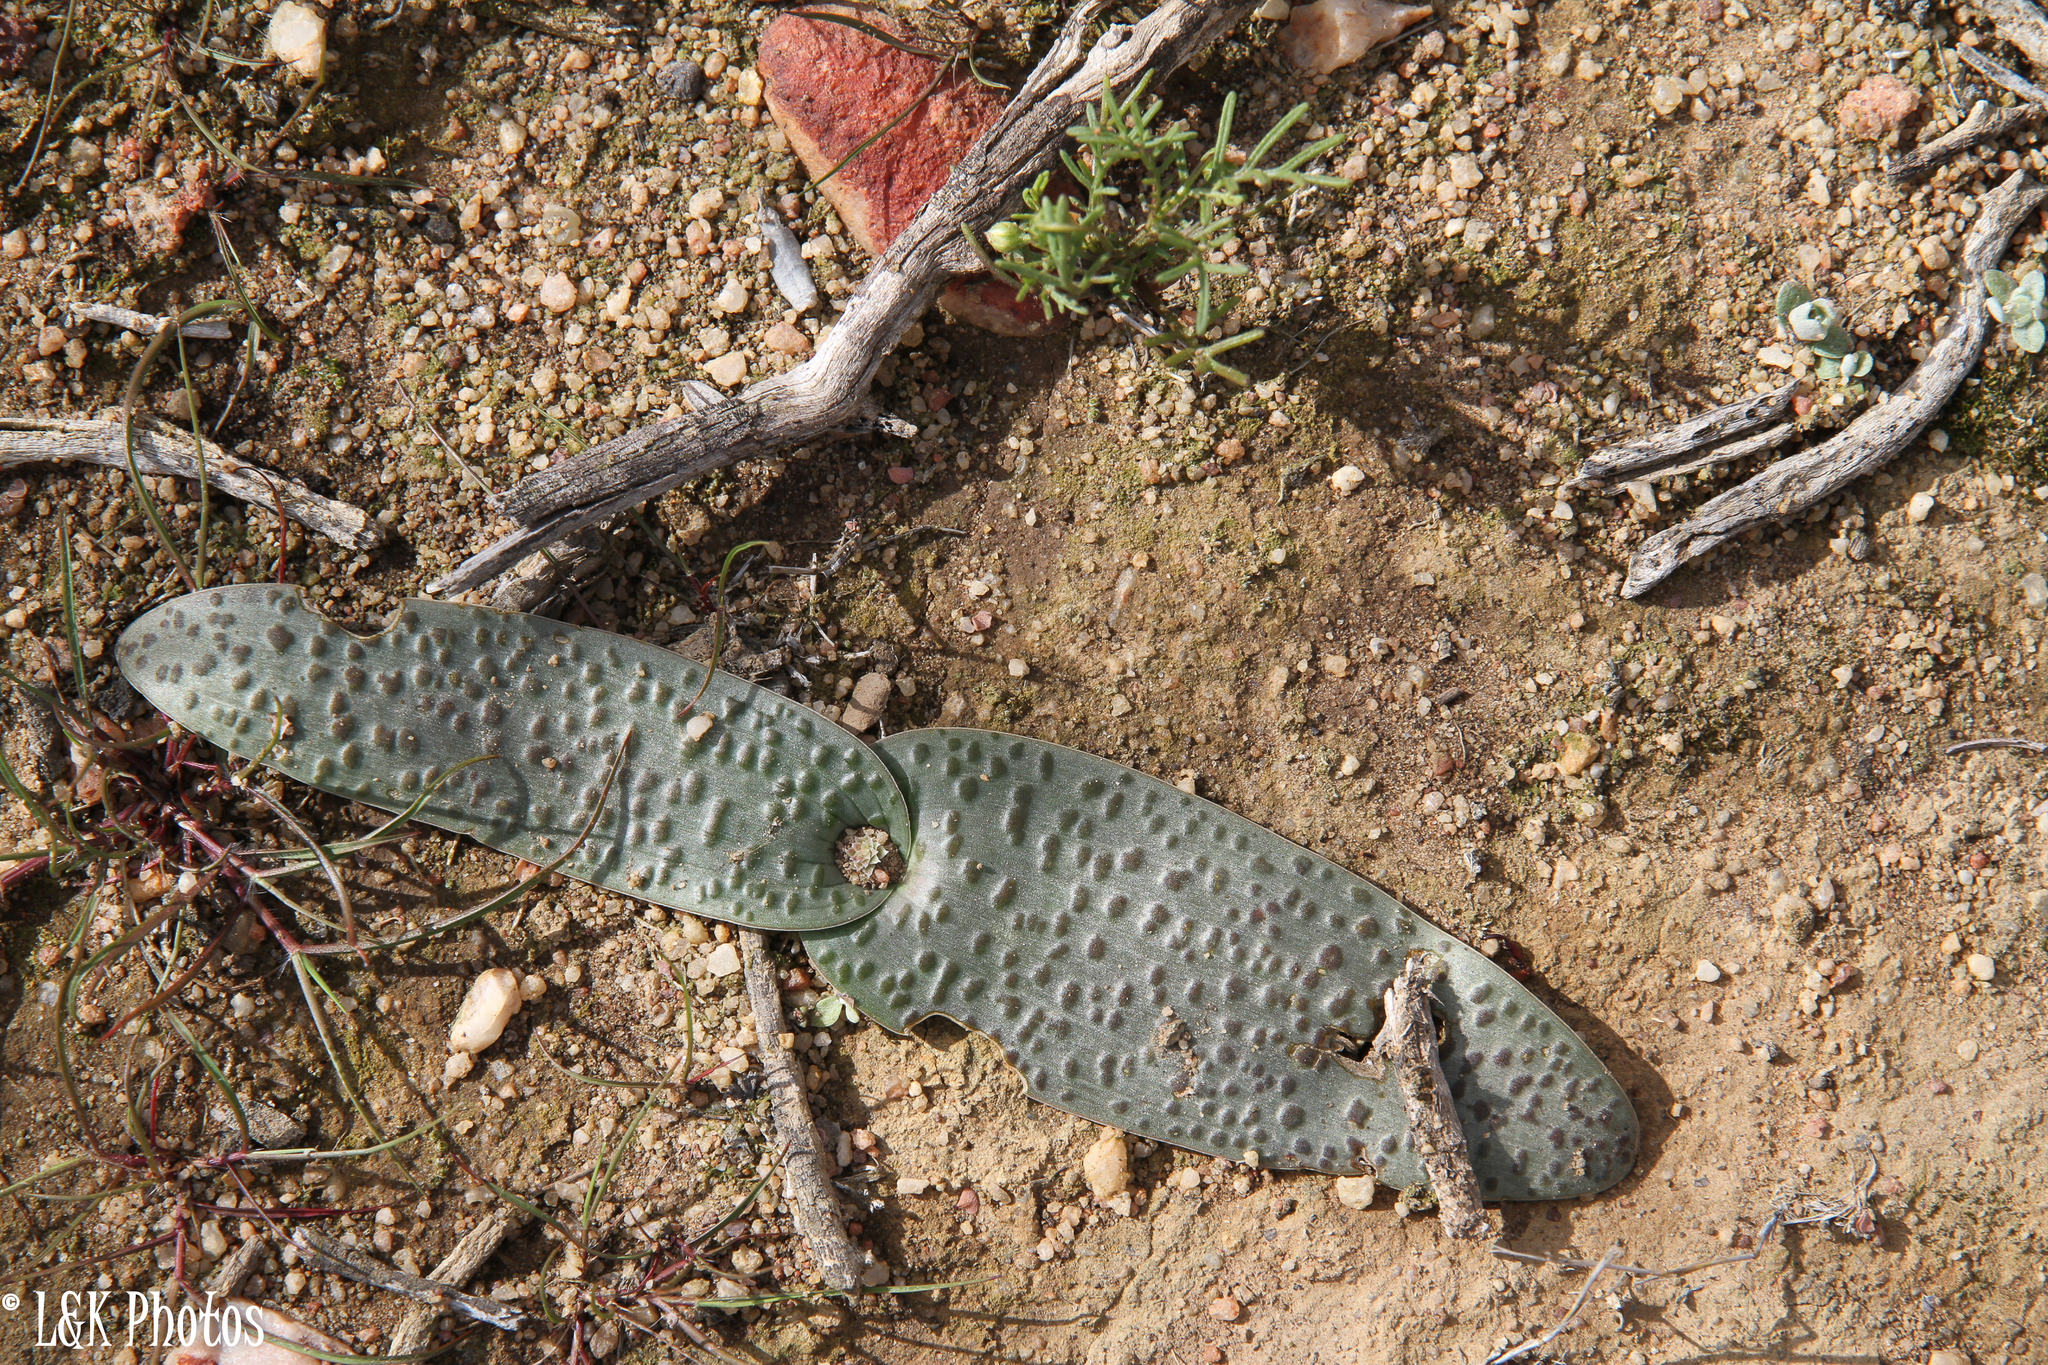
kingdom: Plantae
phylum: Tracheophyta
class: Liliopsida
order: Asparagales
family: Asparagaceae
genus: Lachenalia
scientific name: Lachenalia nardousbergensis
